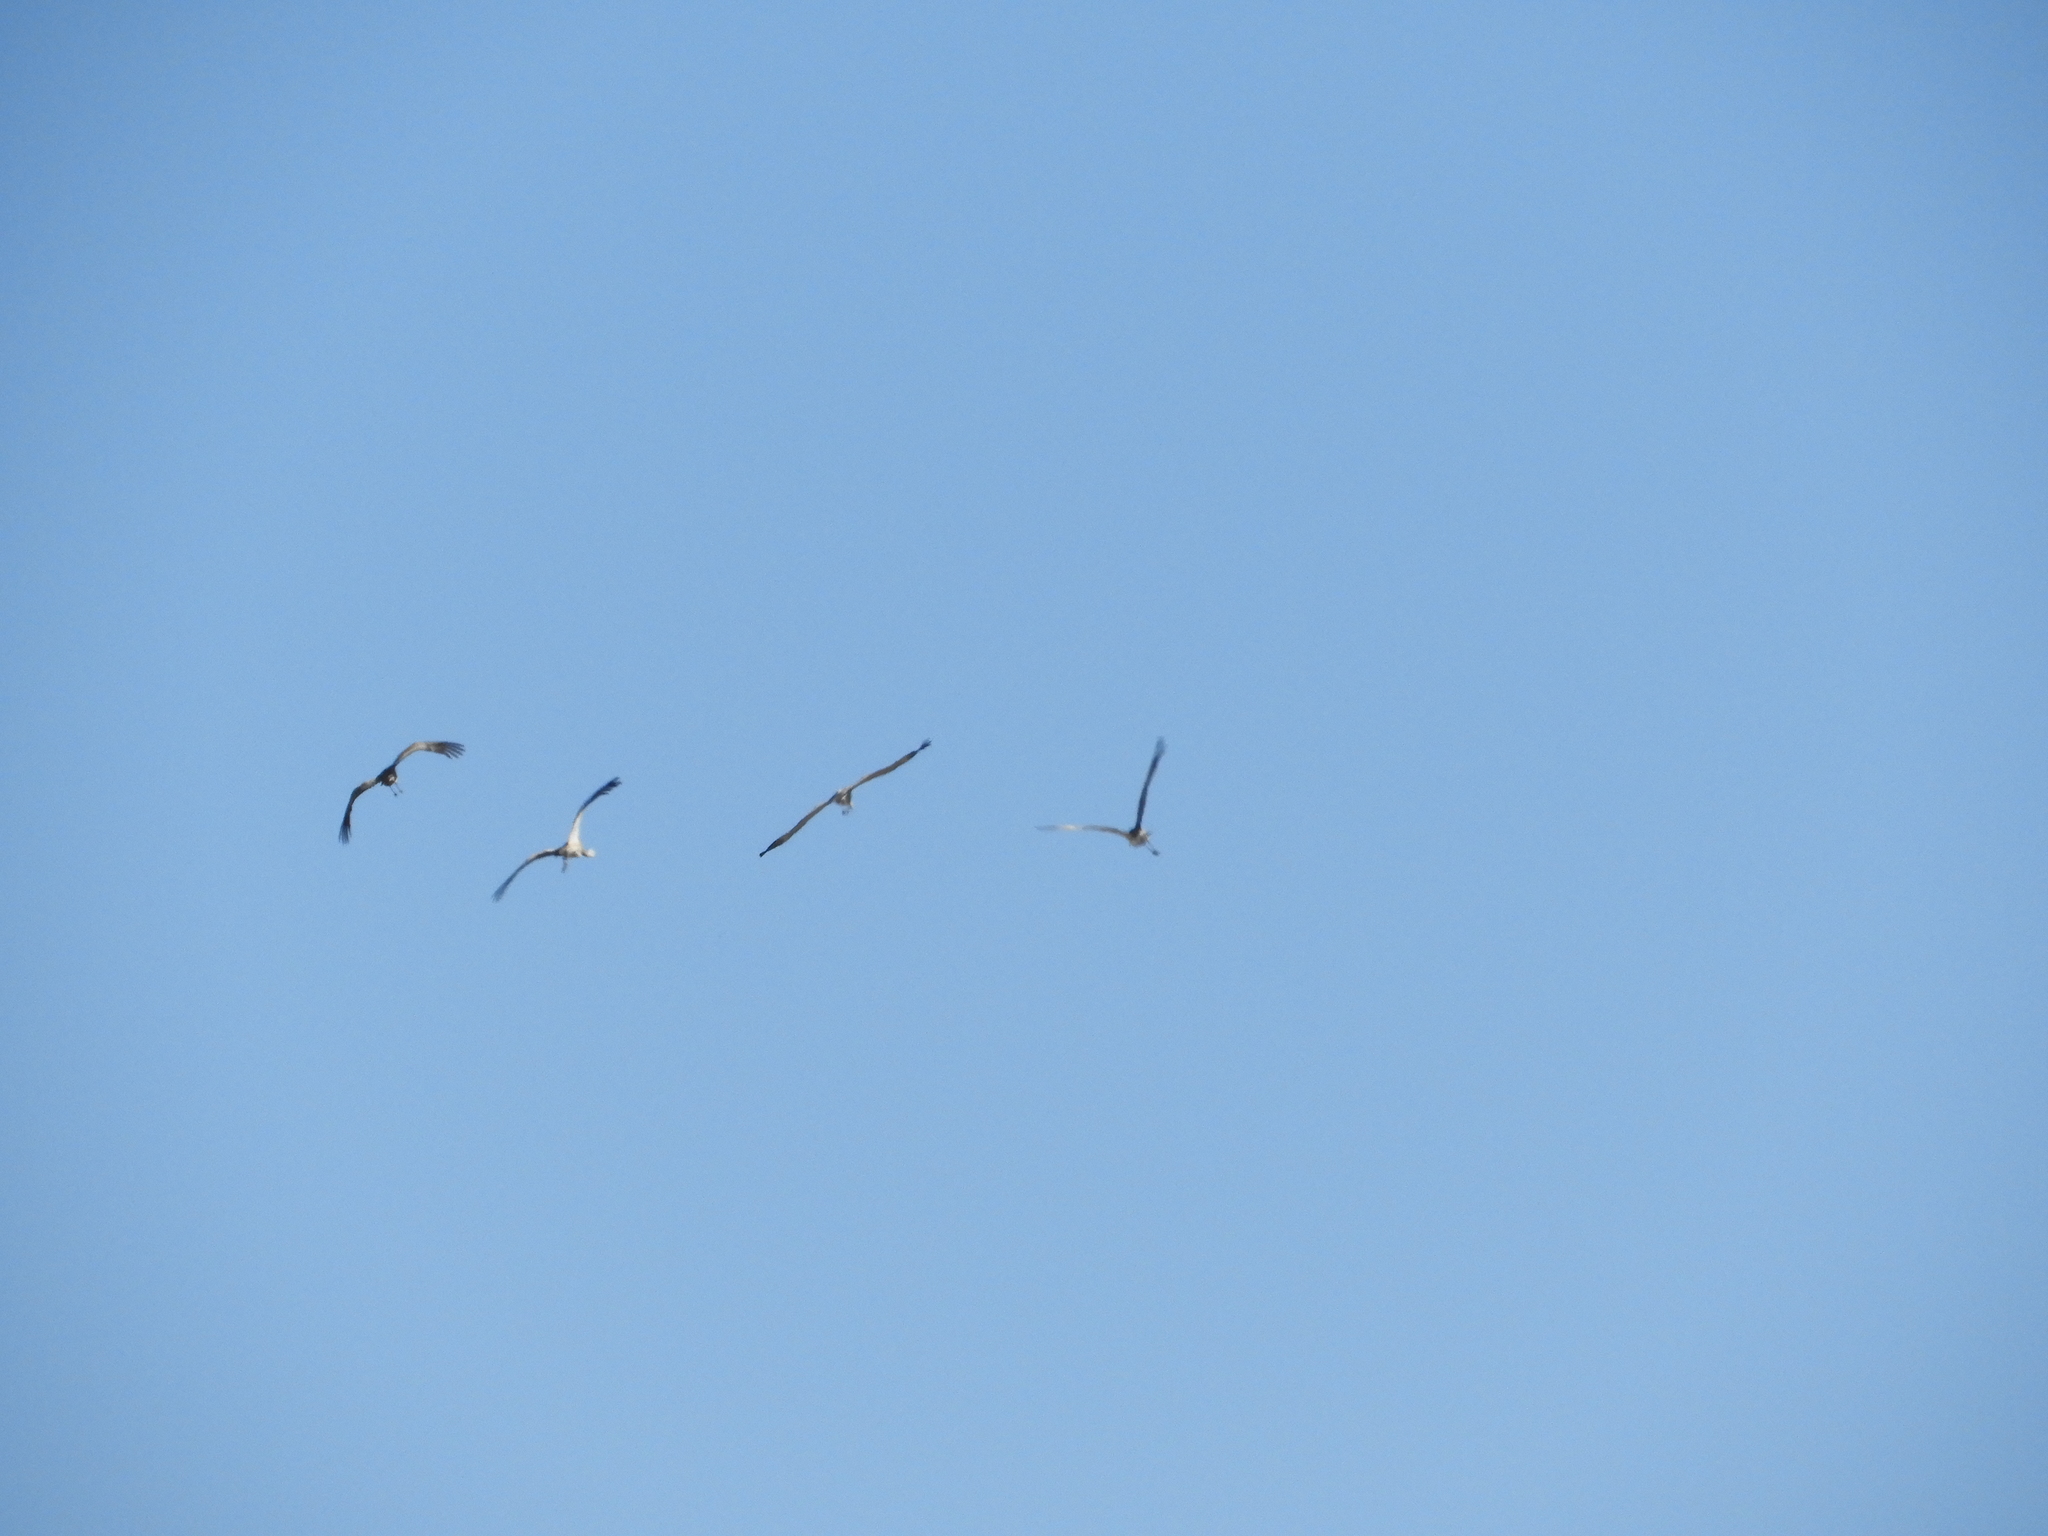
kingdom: Animalia
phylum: Chordata
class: Aves
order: Gruiformes
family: Gruidae
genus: Grus
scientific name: Grus canadensis
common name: Sandhill crane
